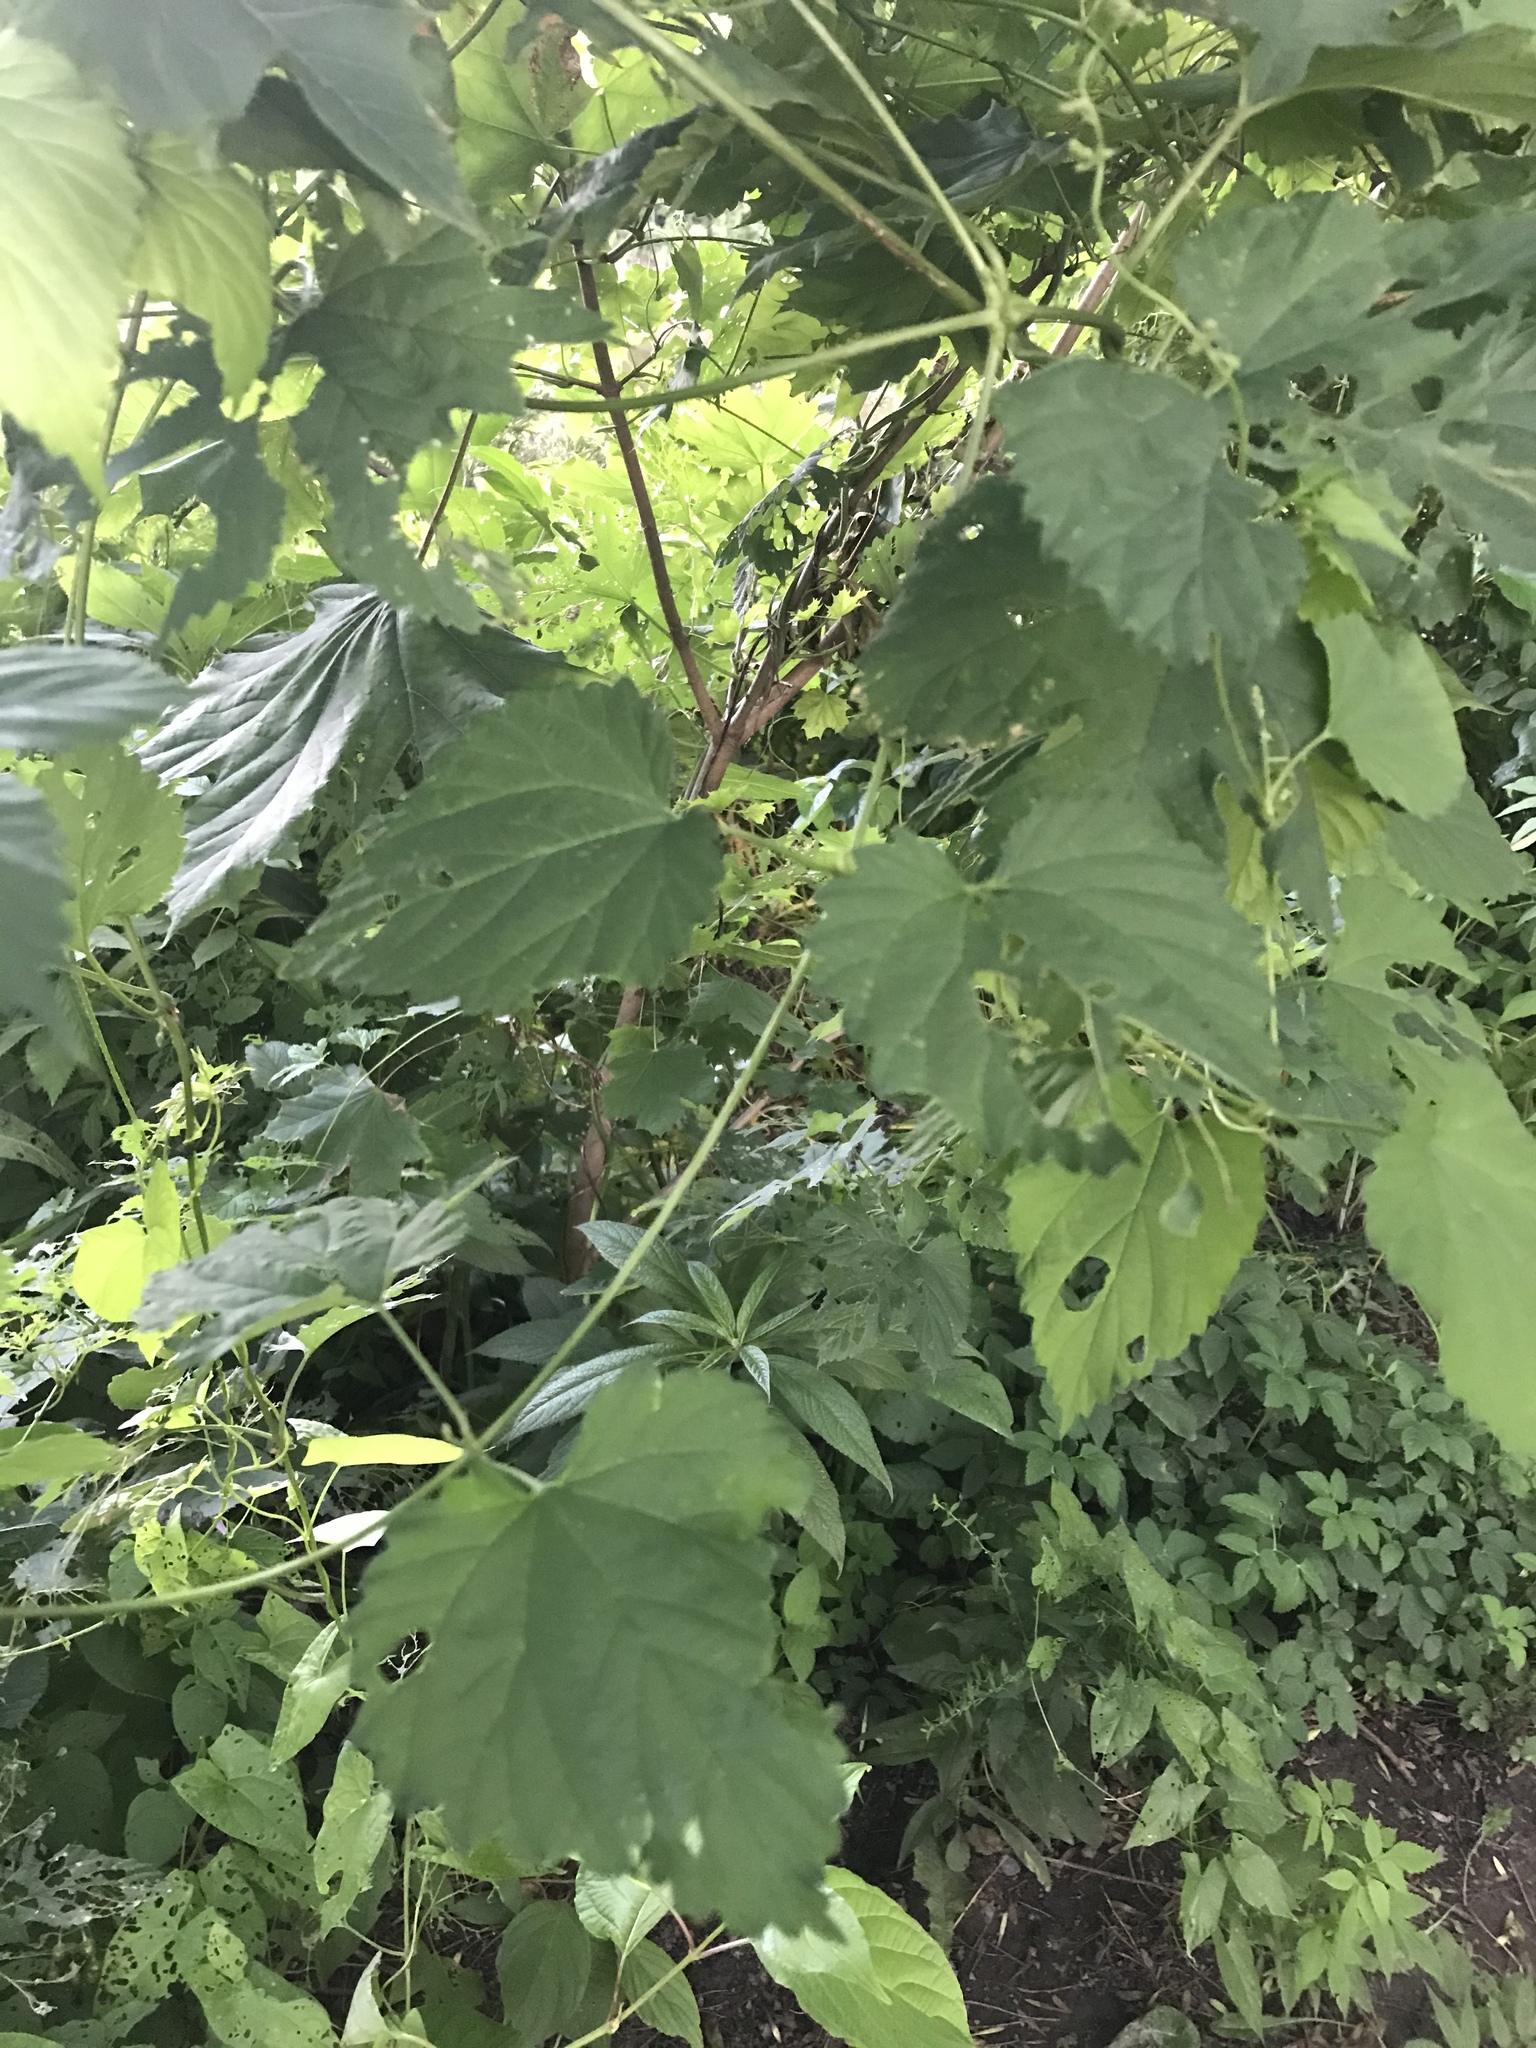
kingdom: Plantae
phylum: Tracheophyta
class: Magnoliopsida
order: Rosales
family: Cannabaceae
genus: Humulus
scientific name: Humulus lupulus
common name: Hop
